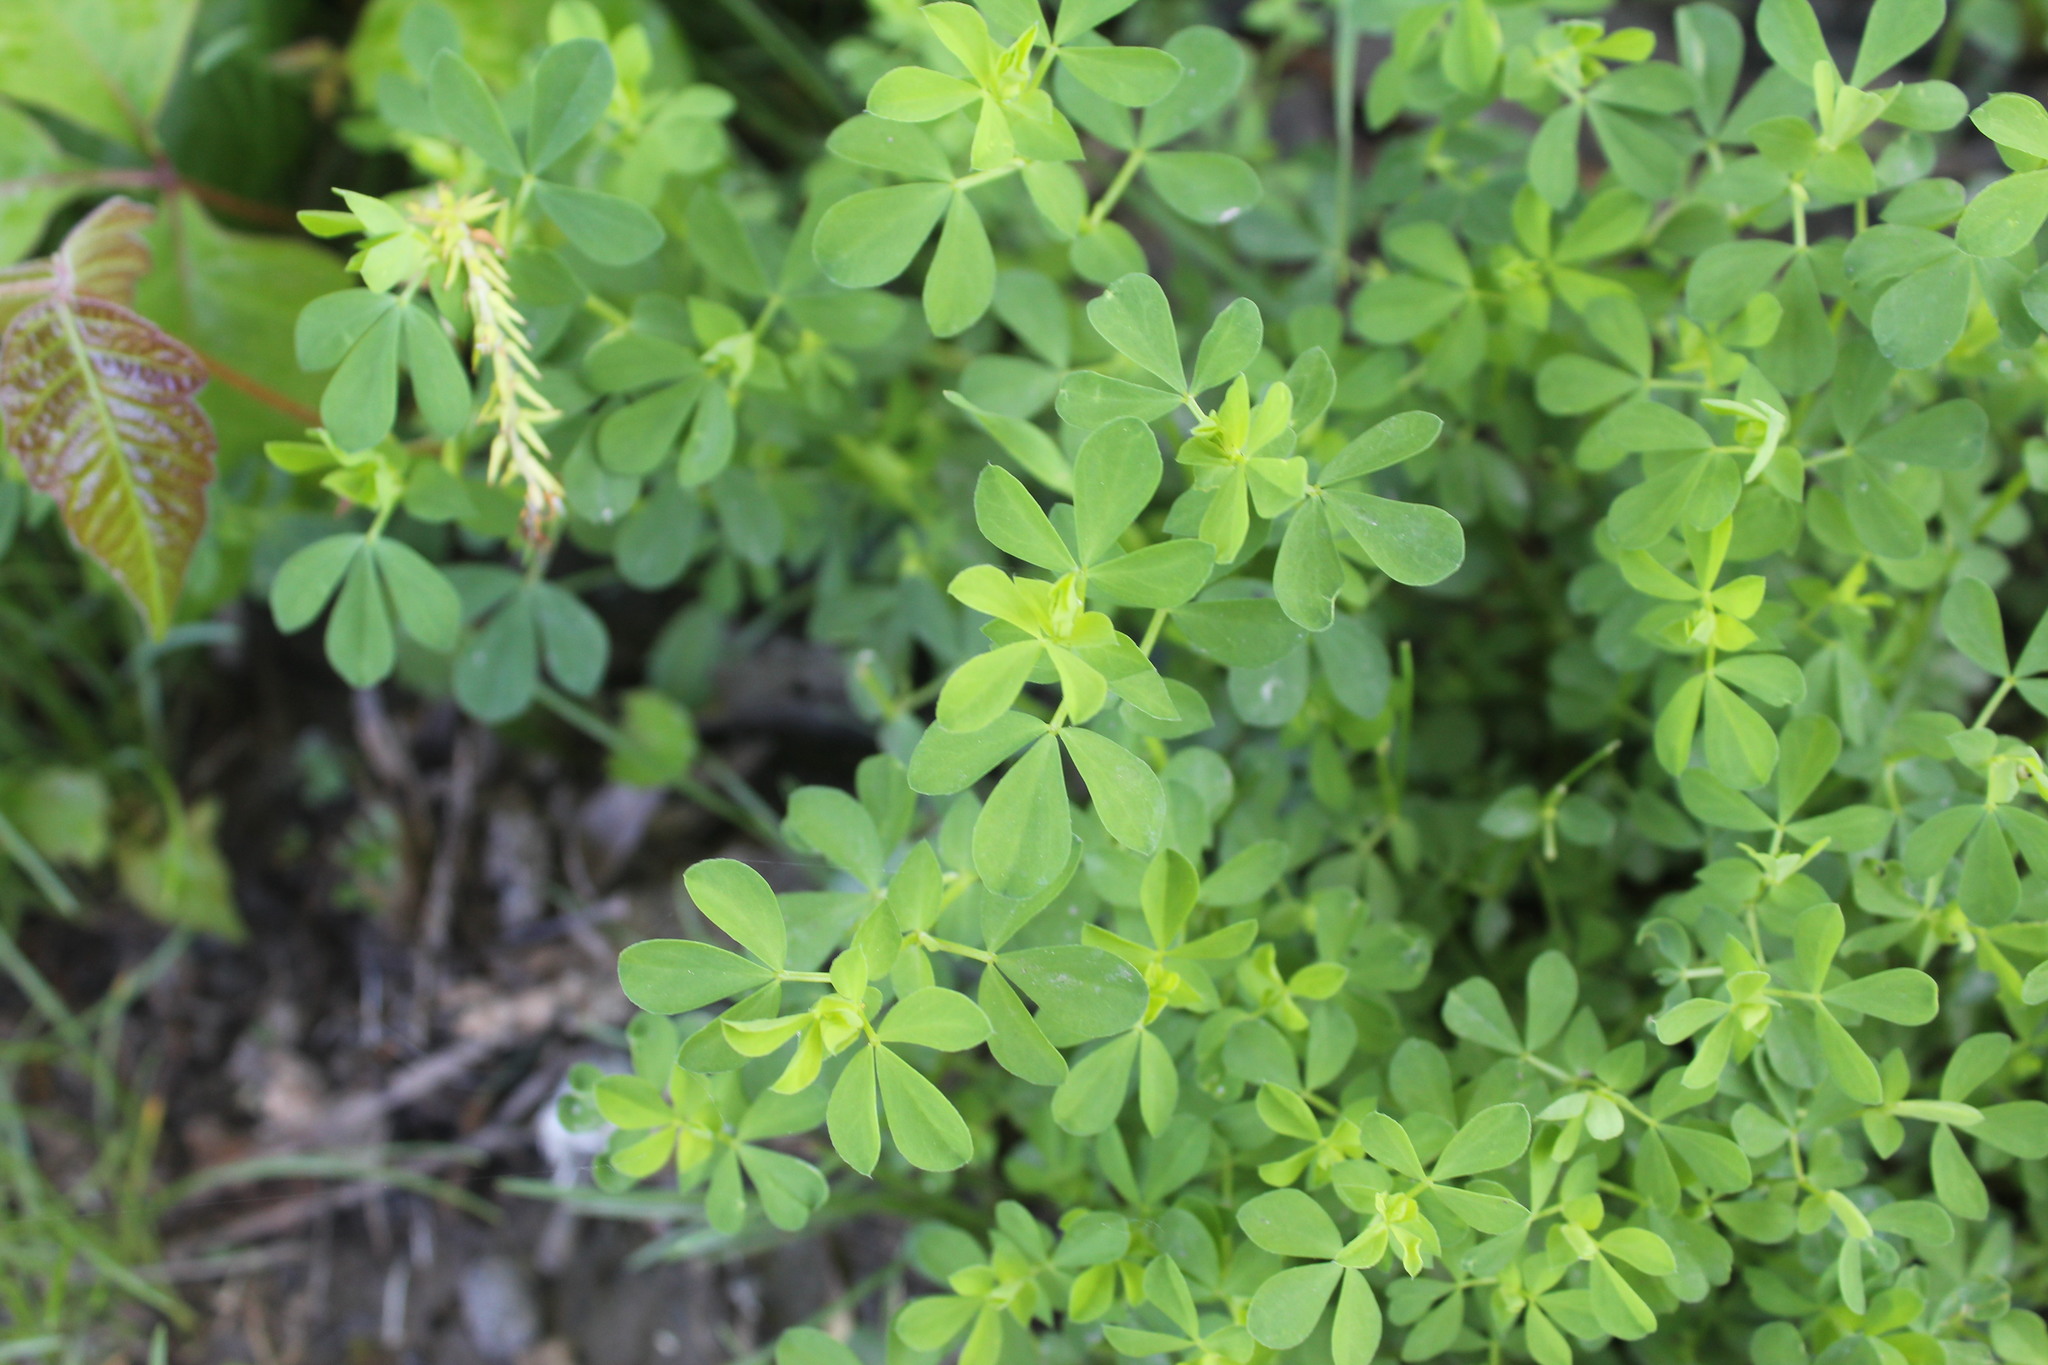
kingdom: Plantae
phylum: Tracheophyta
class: Magnoliopsida
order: Fabales
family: Fabaceae
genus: Lotus
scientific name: Lotus corniculatus
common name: Common bird's-foot-trefoil
